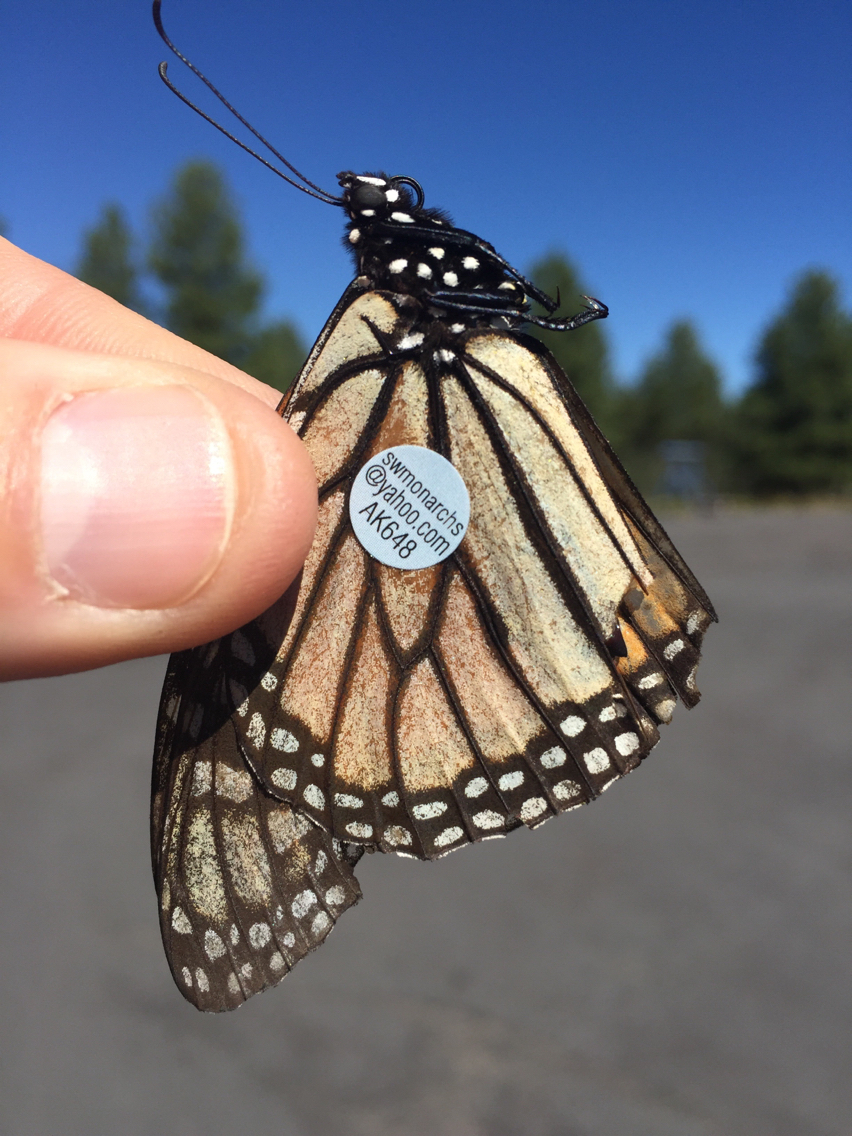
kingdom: Animalia
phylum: Arthropoda
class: Insecta
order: Lepidoptera
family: Nymphalidae
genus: Danaus
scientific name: Danaus plexippus
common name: Monarch
